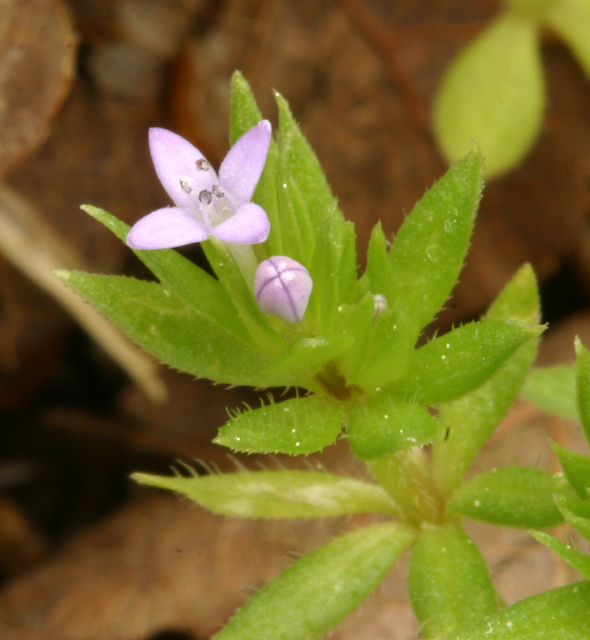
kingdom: Plantae
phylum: Tracheophyta
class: Magnoliopsida
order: Gentianales
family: Rubiaceae
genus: Sherardia
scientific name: Sherardia arvensis
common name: Field madder
